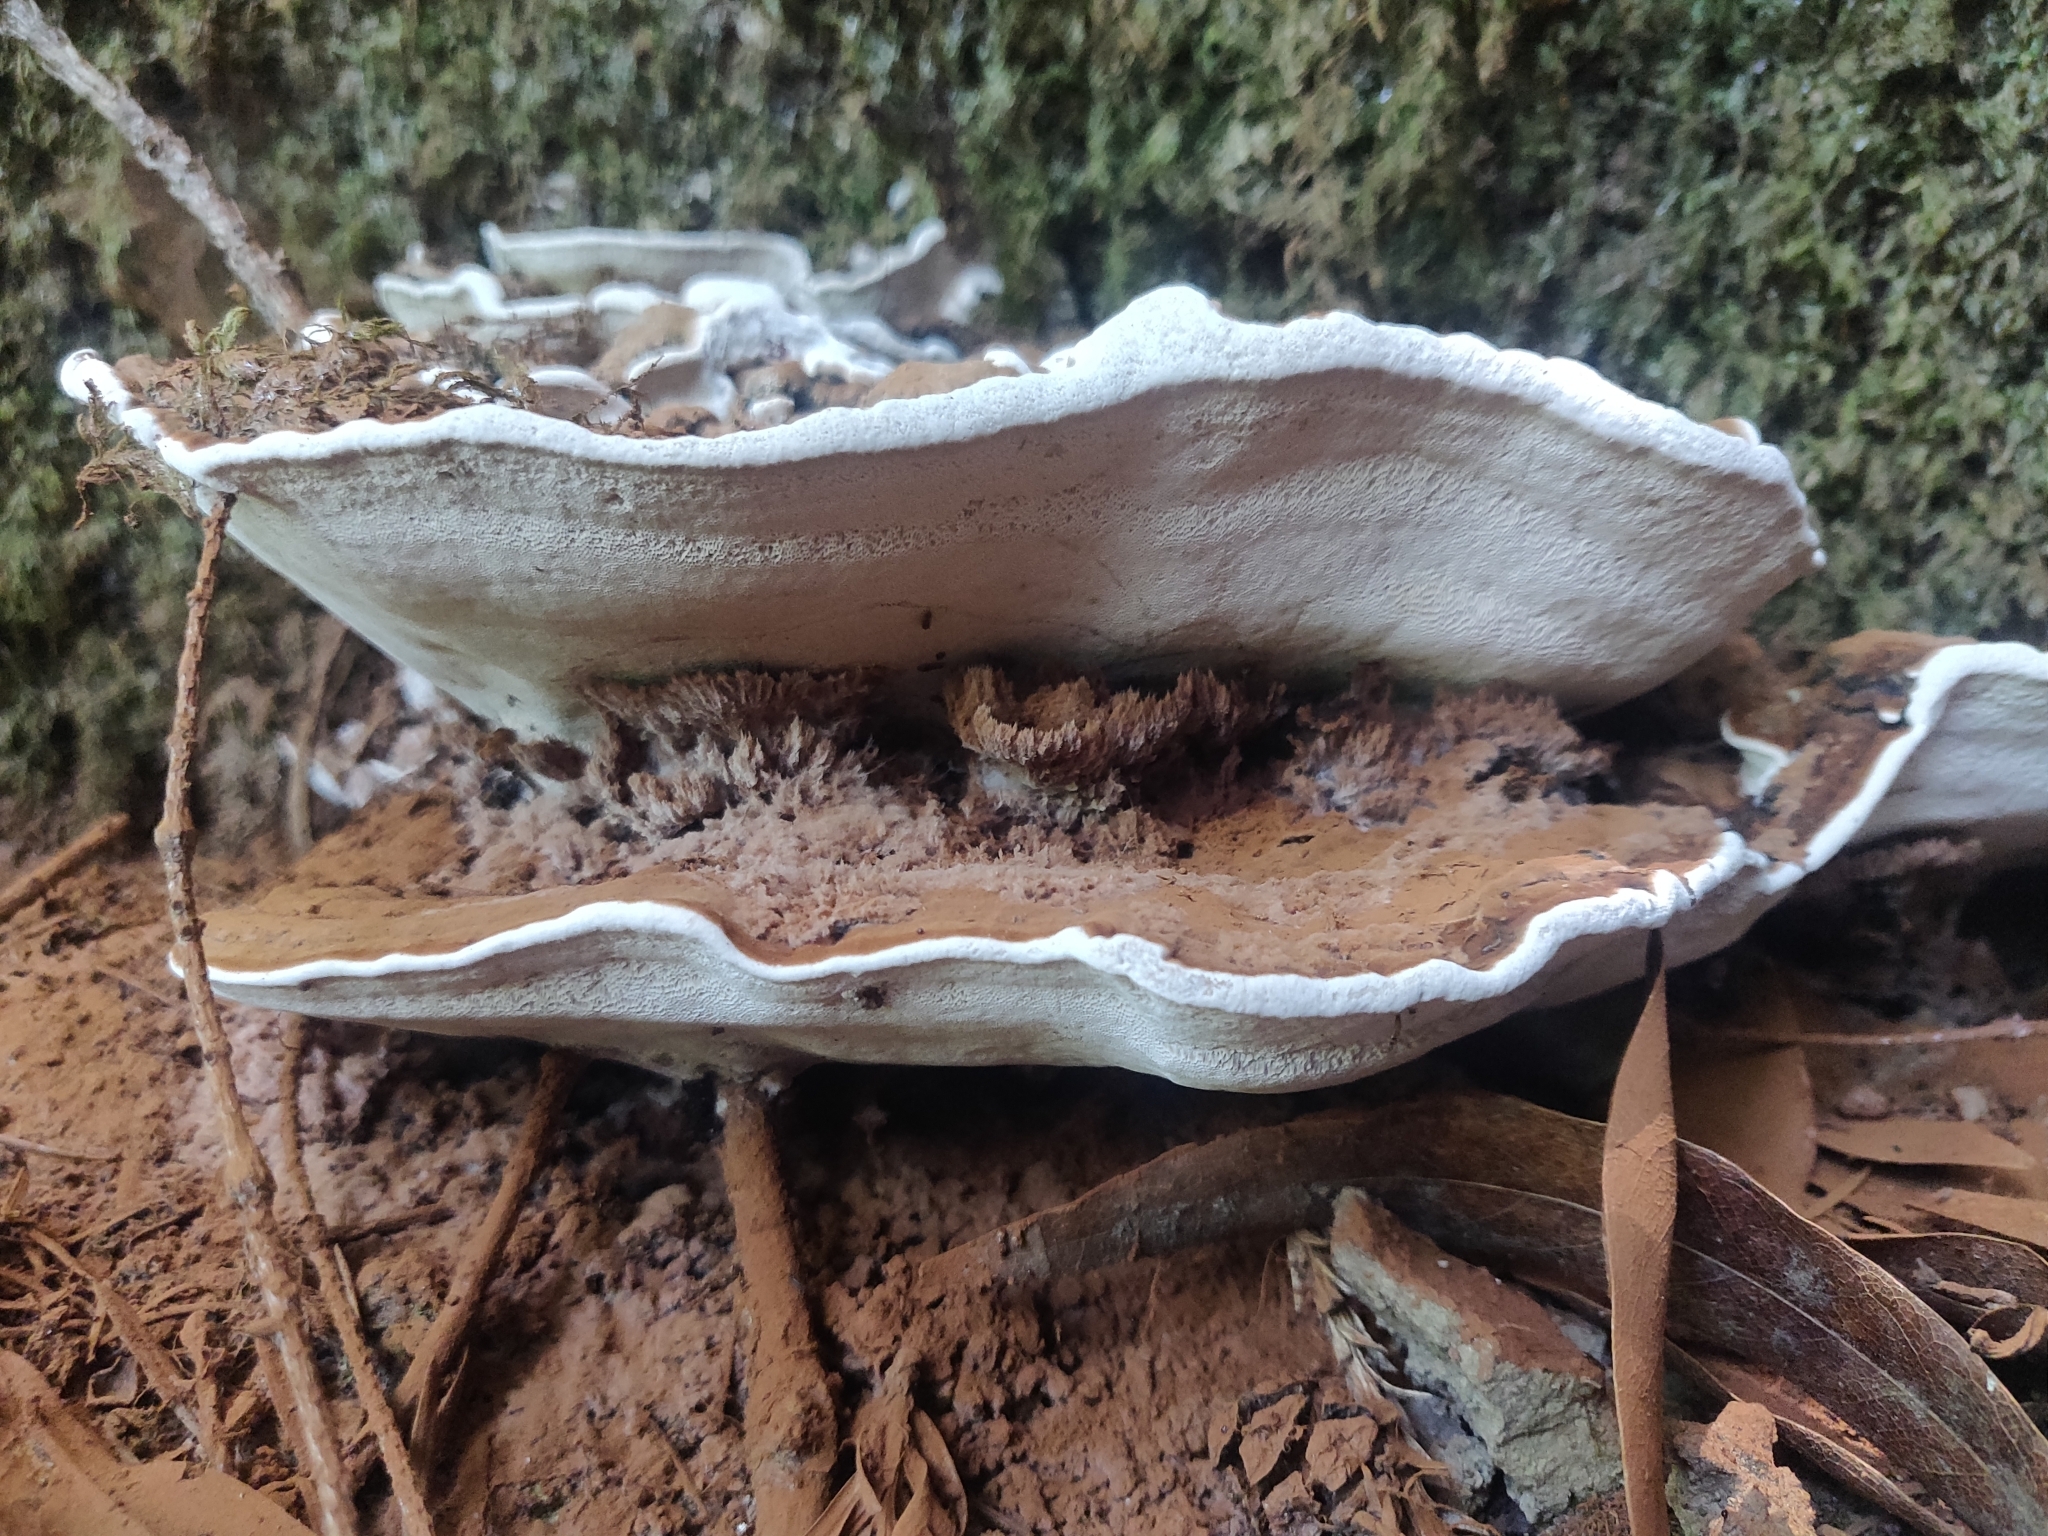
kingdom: Fungi
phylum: Basidiomycota
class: Agaricomycetes
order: Polyporales
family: Polyporaceae
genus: Ganoderma
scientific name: Ganoderma brownii
